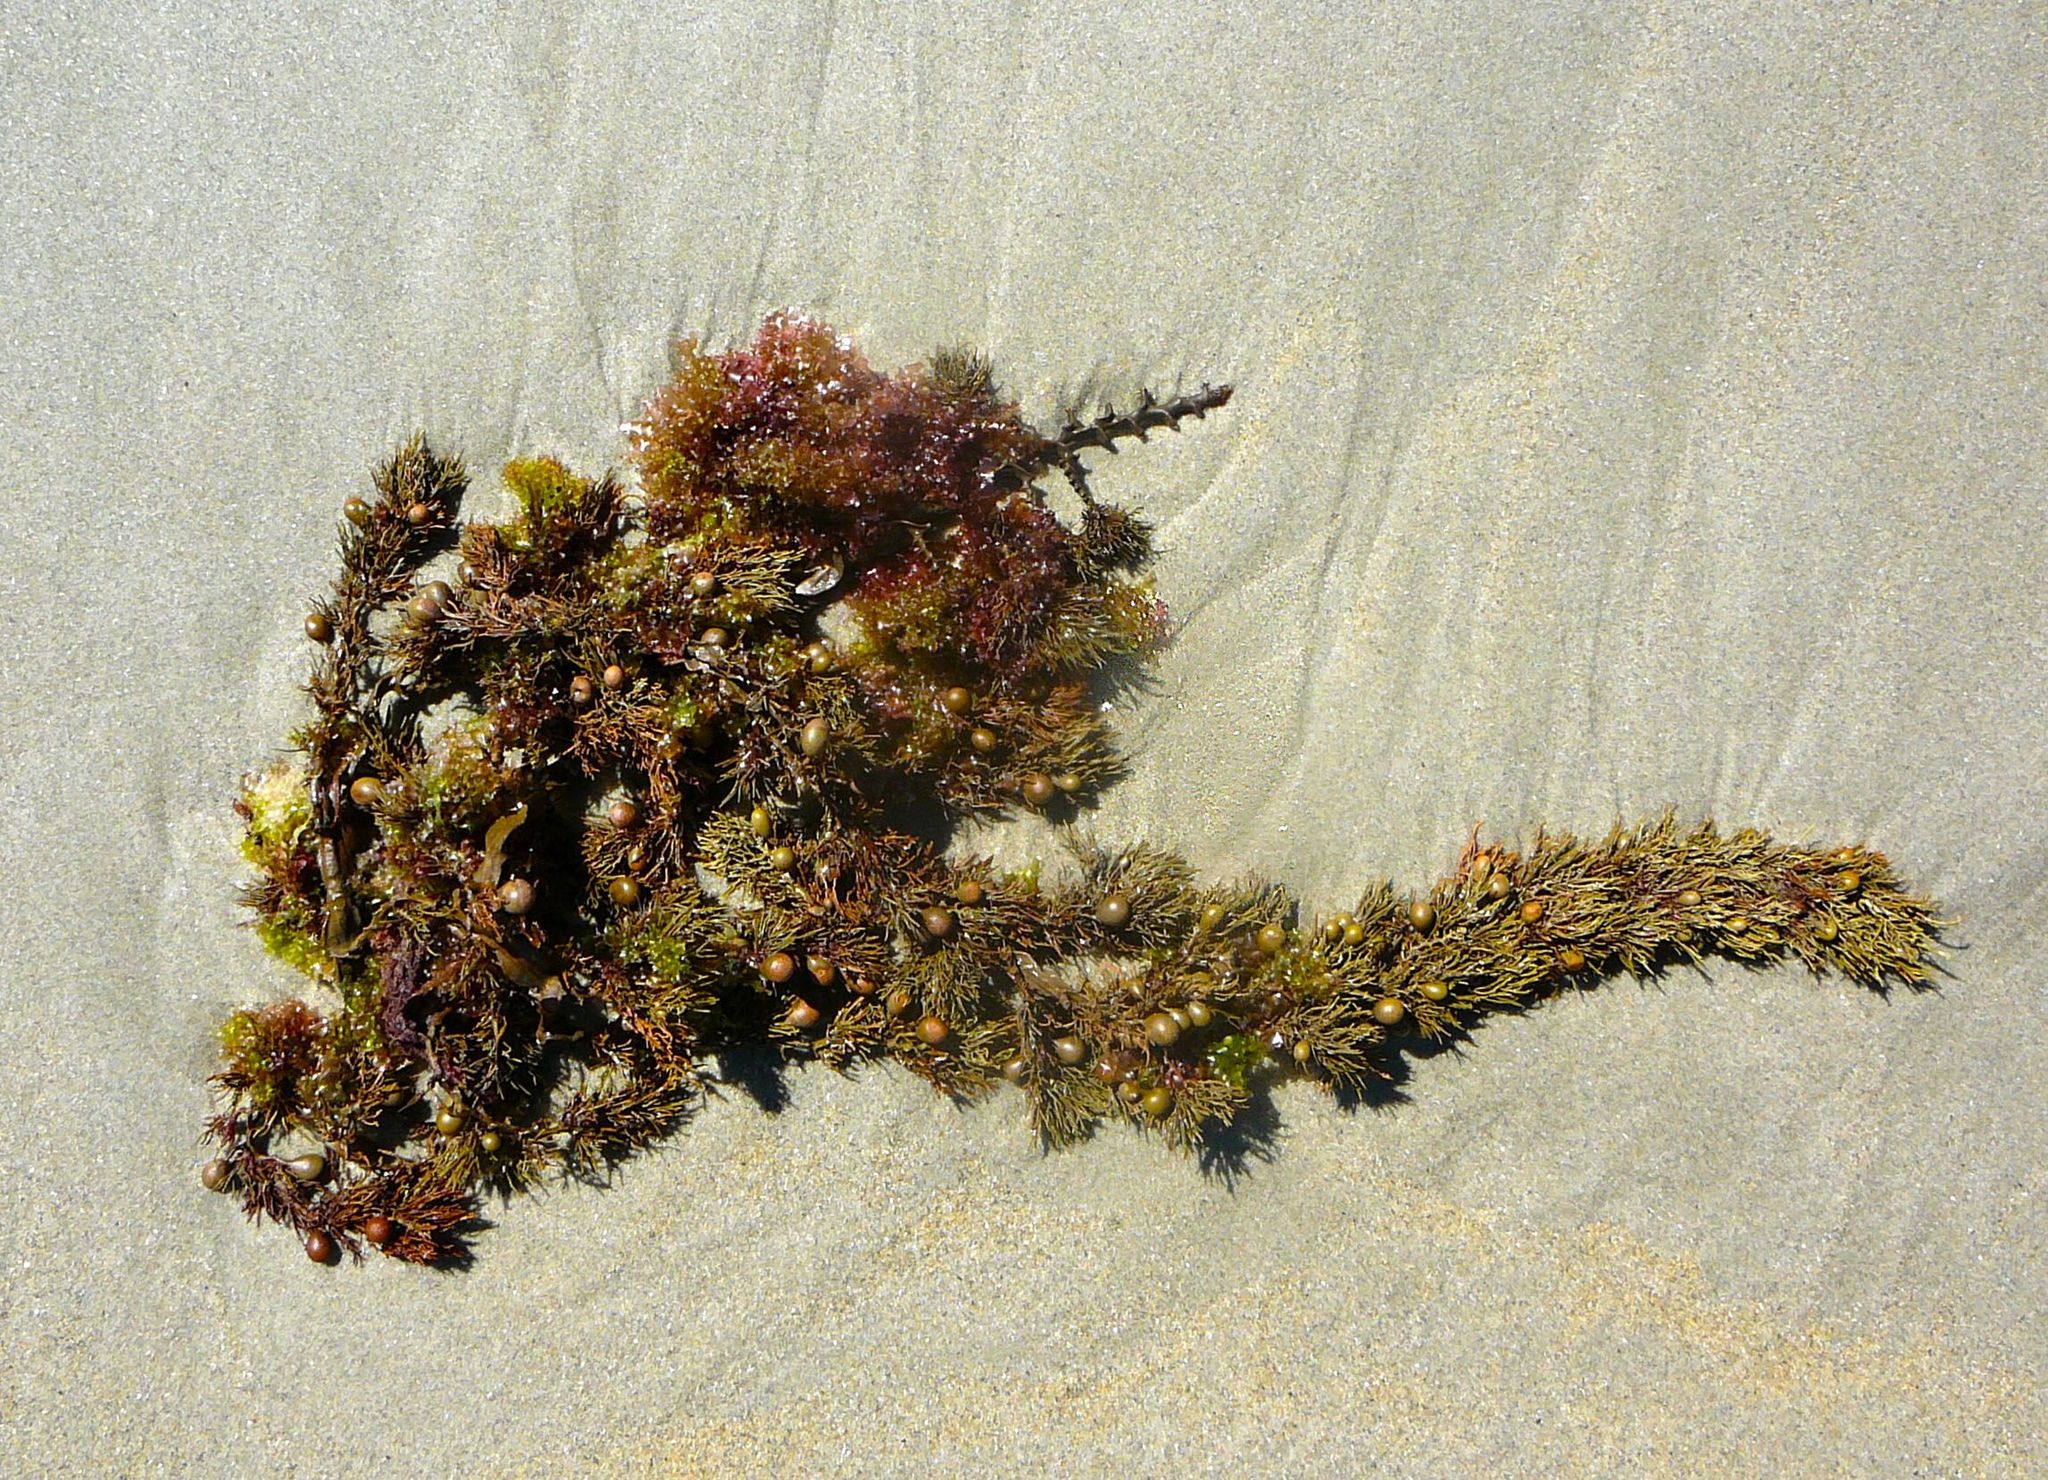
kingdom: Chromista
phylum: Ochrophyta
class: Phaeophyceae
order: Fucales
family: Sargassaceae
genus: Cystophora
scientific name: Cystophora retroflexa
